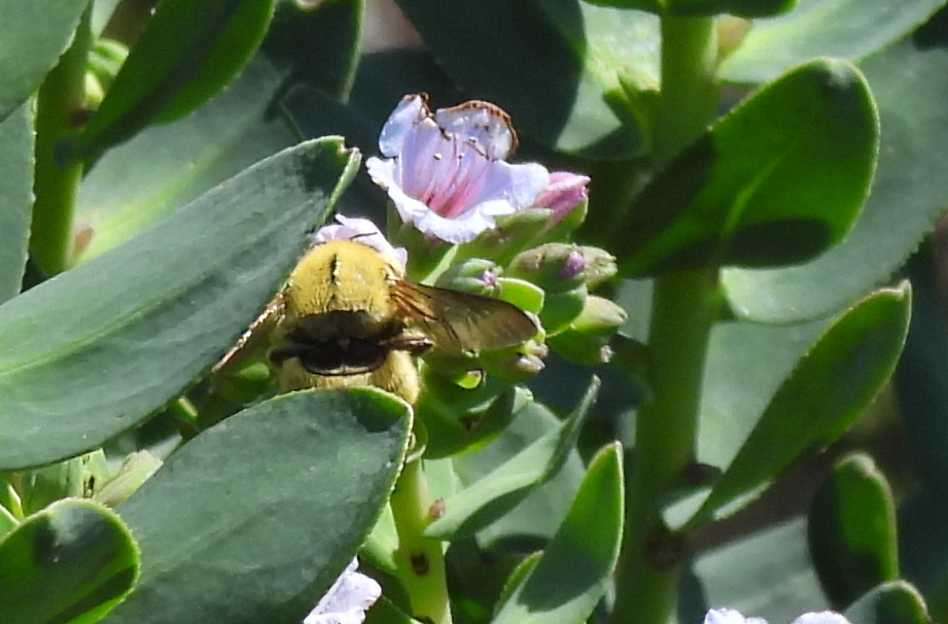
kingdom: Animalia
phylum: Arthropoda
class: Insecta
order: Hymenoptera
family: Apidae
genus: Xylocopa
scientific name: Xylocopa caffra
